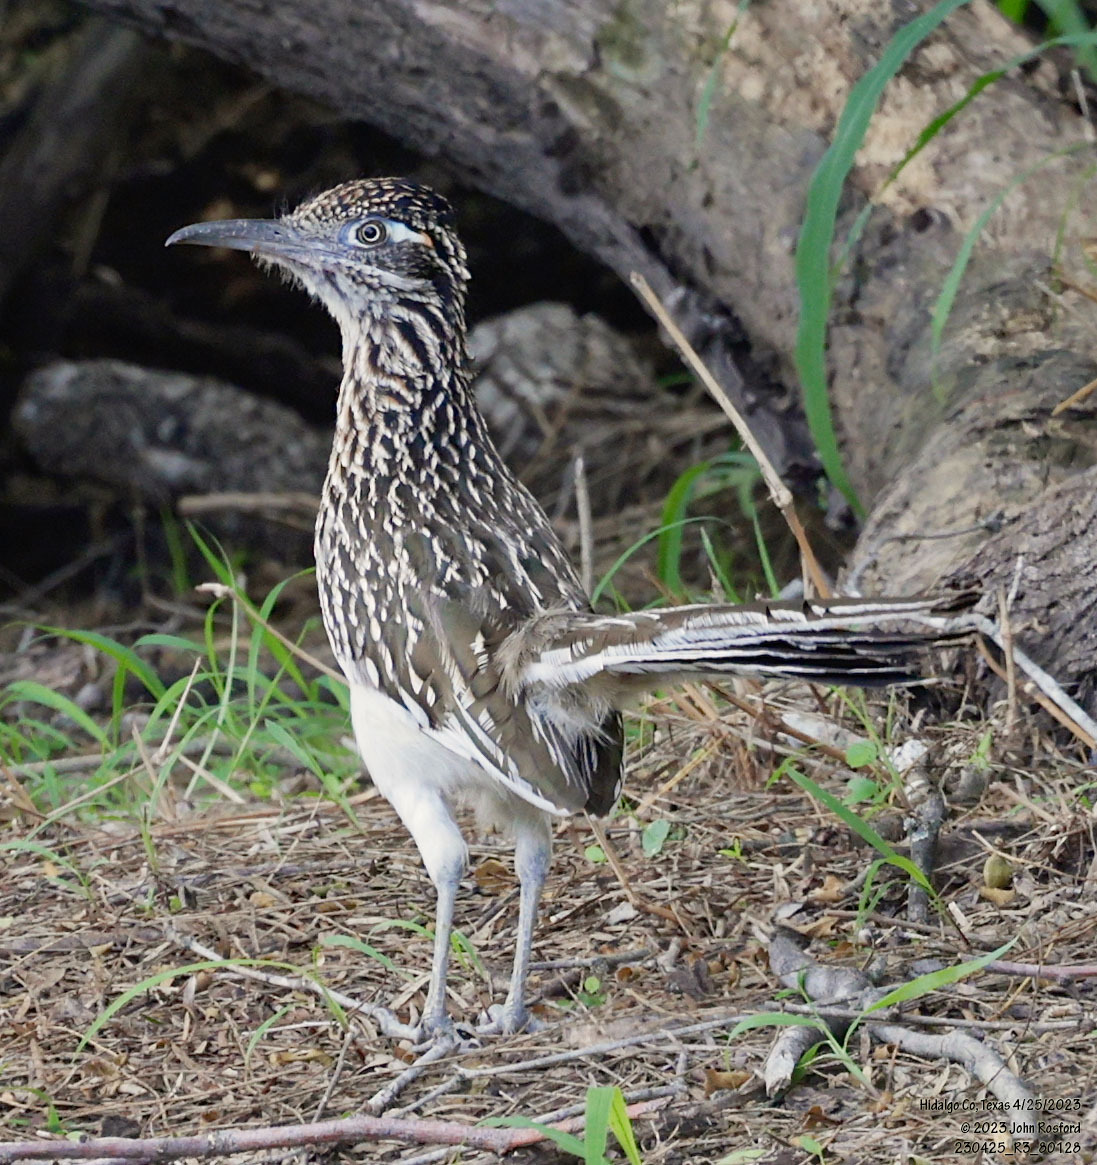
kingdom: Animalia
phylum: Chordata
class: Aves
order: Cuculiformes
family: Cuculidae
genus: Geococcyx
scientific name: Geococcyx californianus
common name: Greater roadrunner
